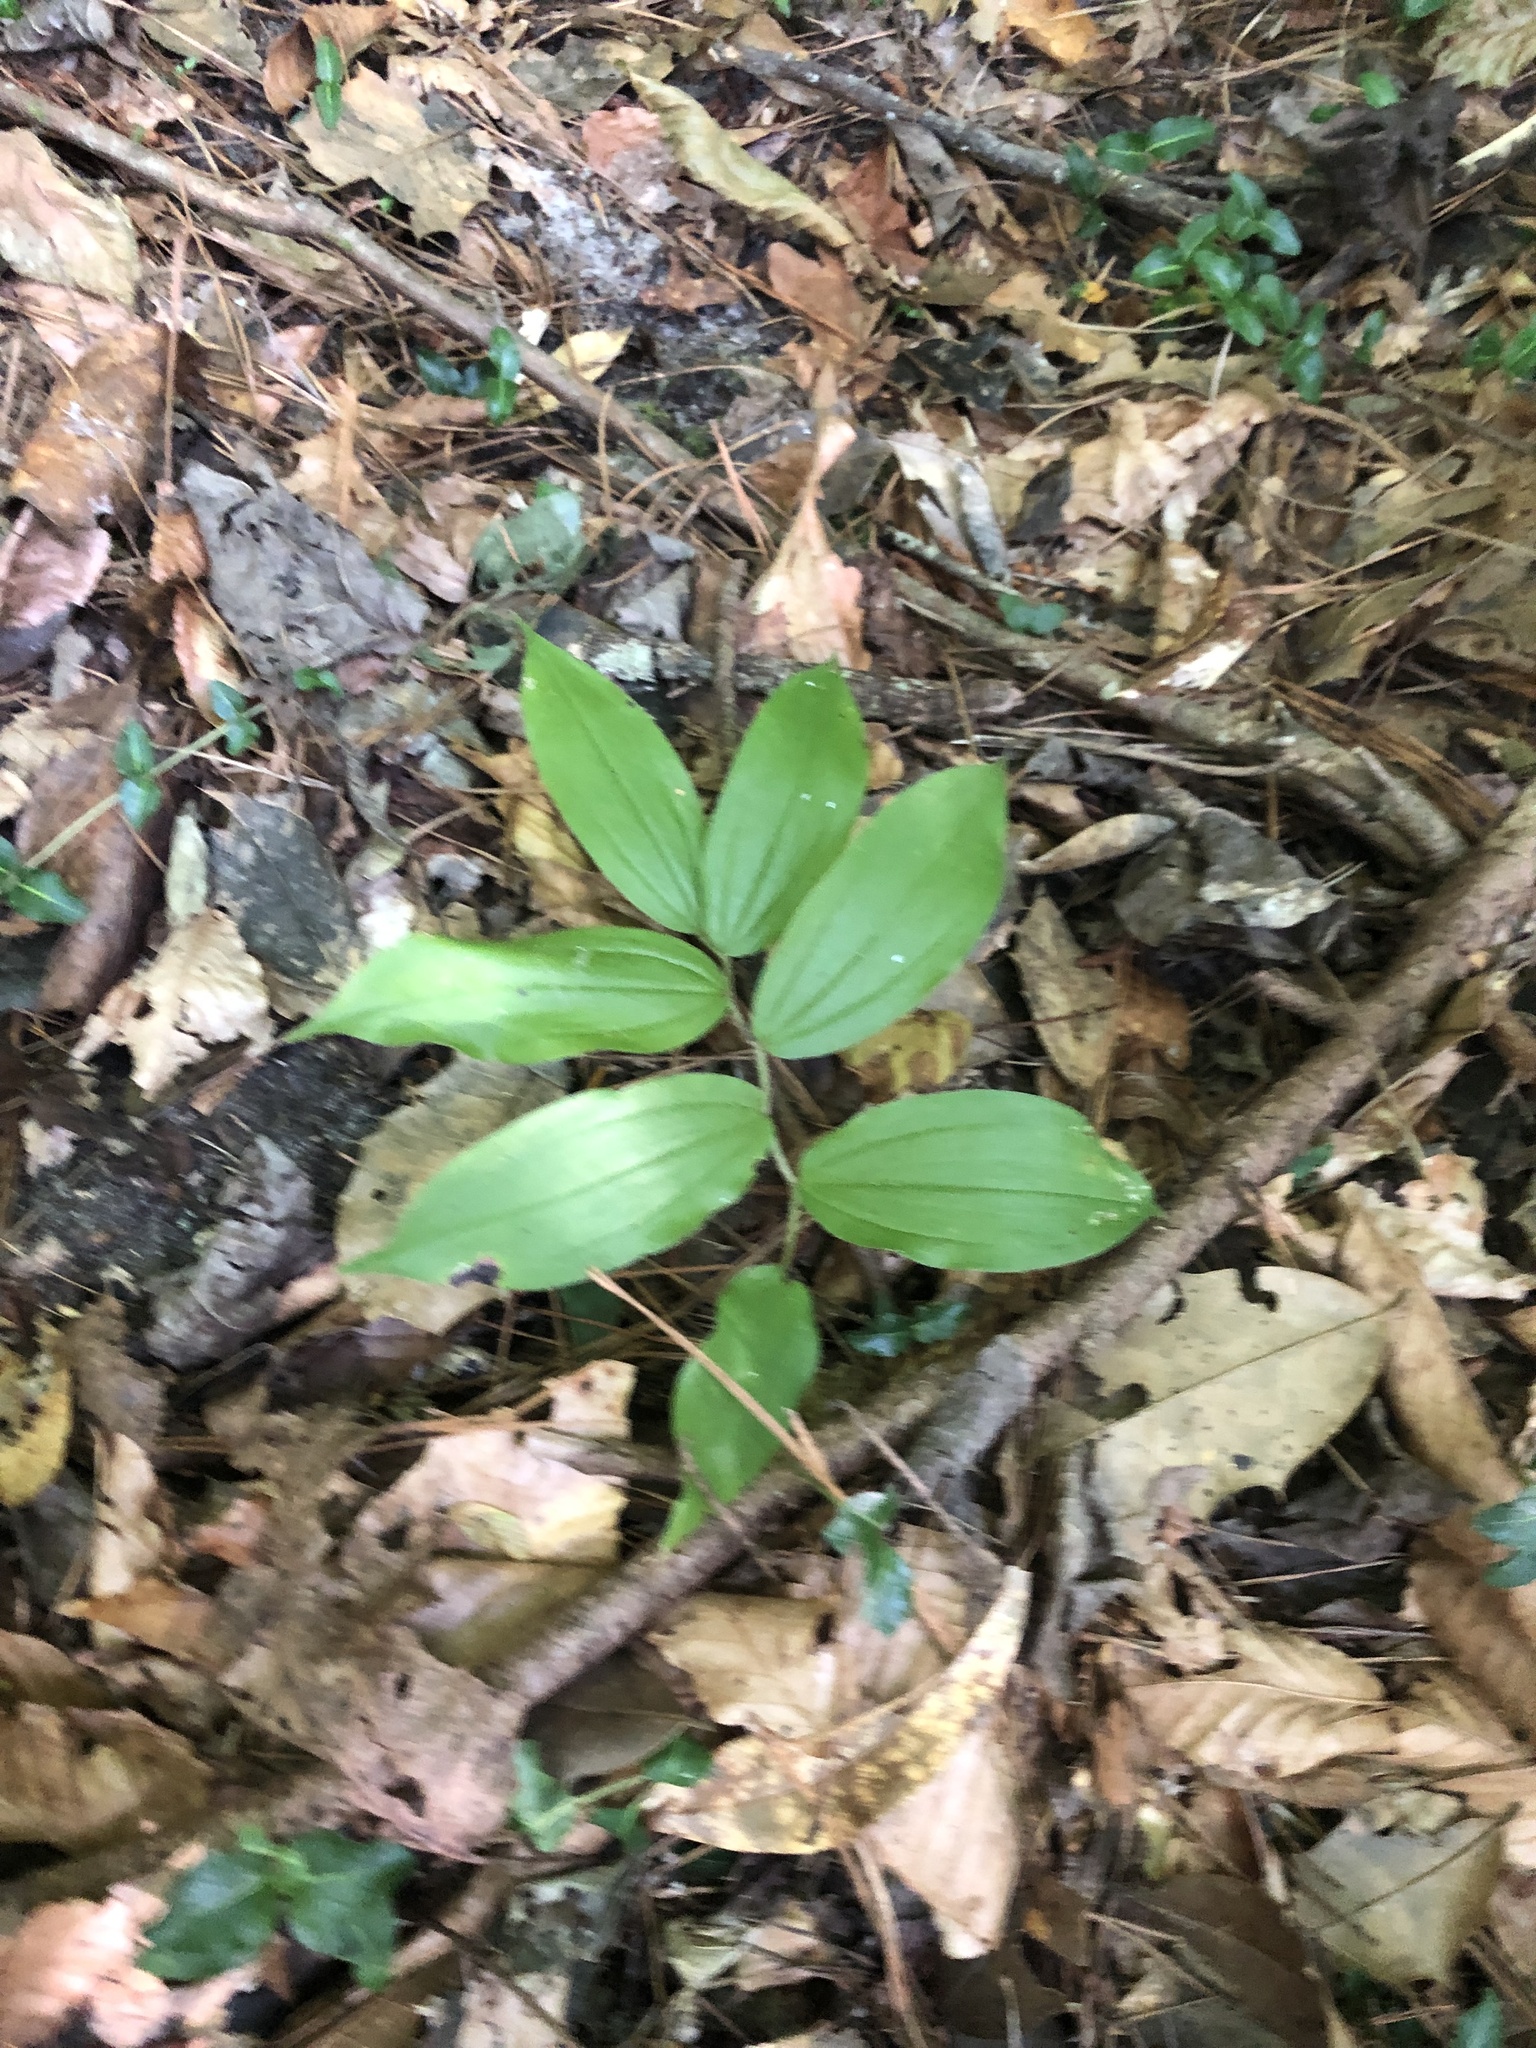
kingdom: Plantae
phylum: Tracheophyta
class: Liliopsida
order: Asparagales
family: Asparagaceae
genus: Maianthemum
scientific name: Maianthemum racemosum
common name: False spikenard
